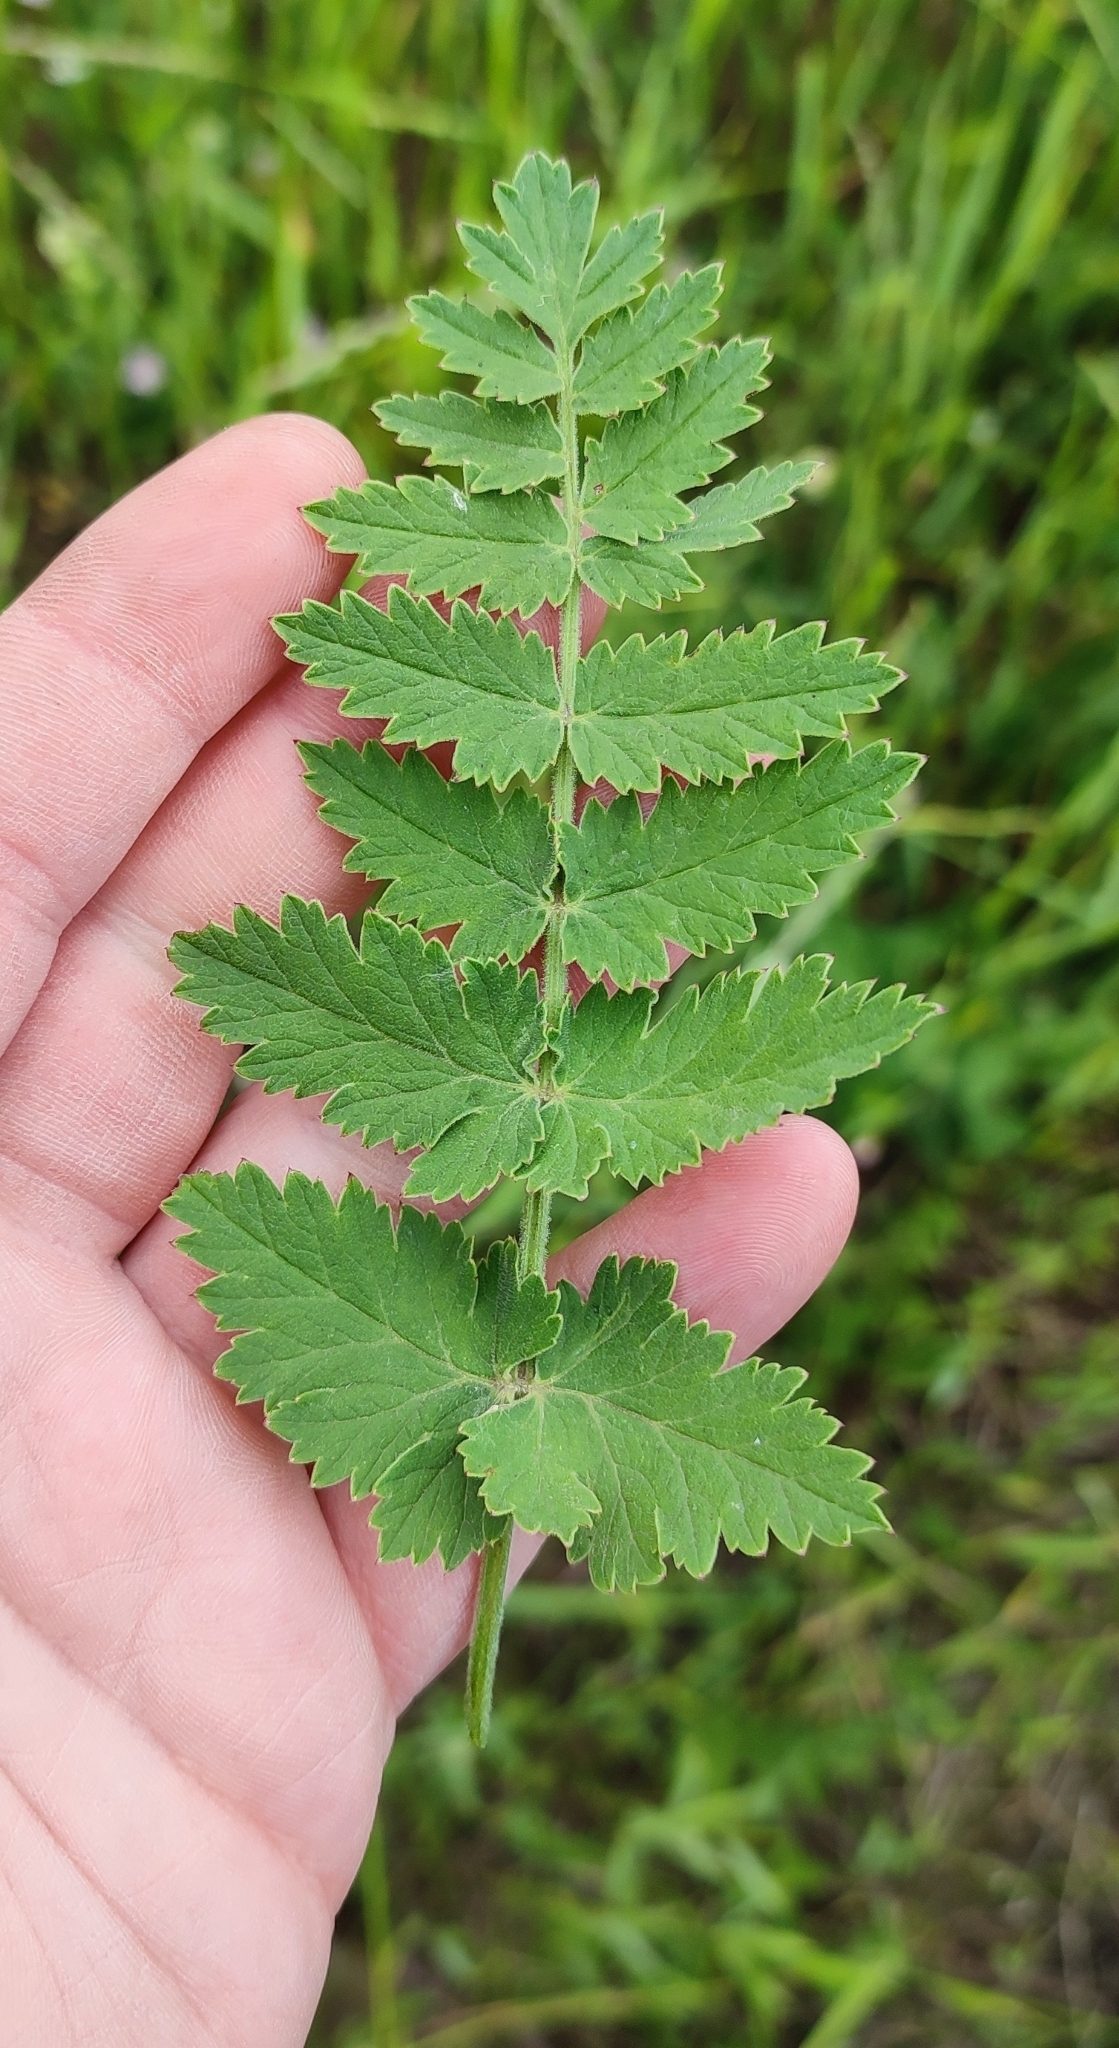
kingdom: Plantae
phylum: Tracheophyta
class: Magnoliopsida
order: Apiales
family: Apiaceae
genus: Pastinaca
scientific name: Pastinaca sativa
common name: Wild parsnip
